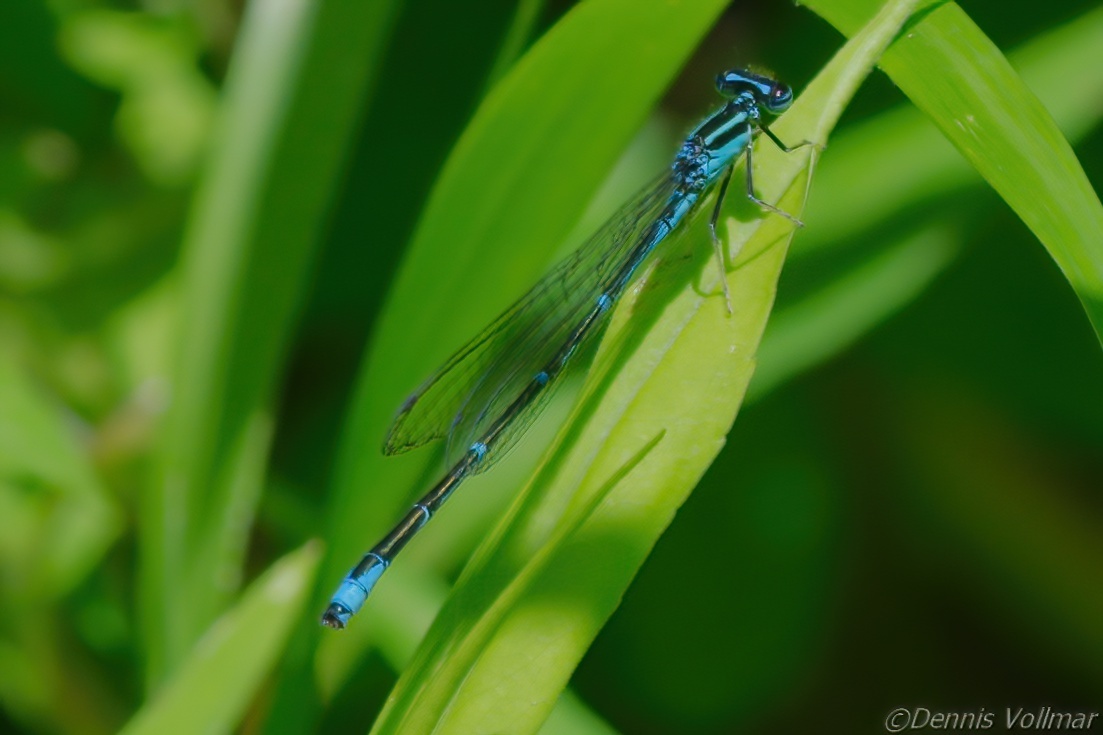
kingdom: Animalia
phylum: Arthropoda
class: Insecta
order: Odonata
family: Coenagrionidae
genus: Enallagma
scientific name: Enallagma exsulans
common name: Stream bluet
